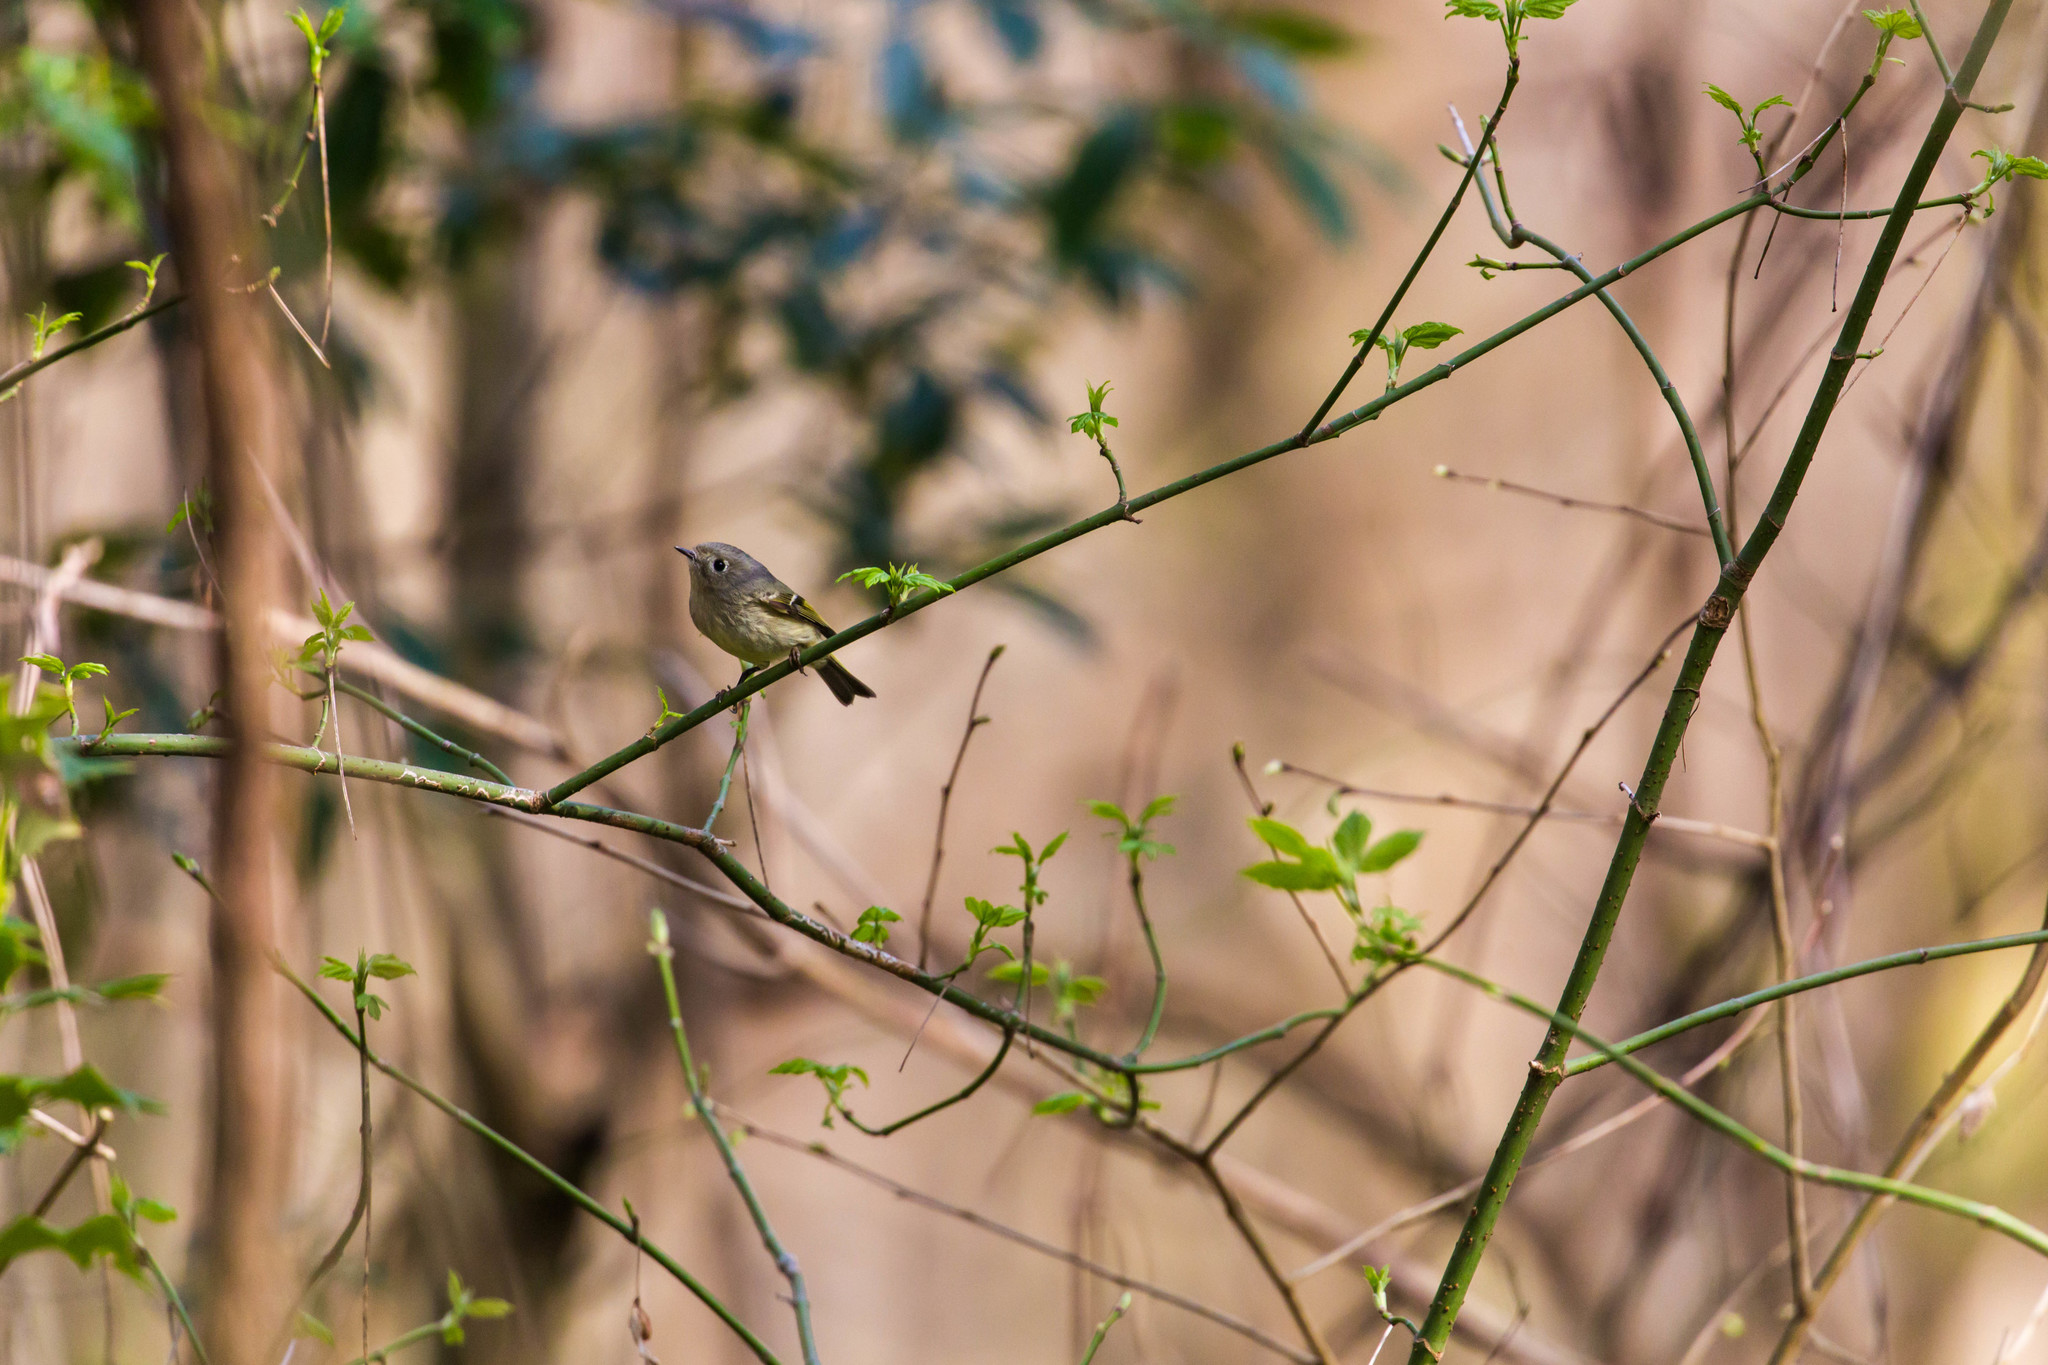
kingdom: Animalia
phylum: Chordata
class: Aves
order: Passeriformes
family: Regulidae
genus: Regulus
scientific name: Regulus calendula
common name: Ruby-crowned kinglet
